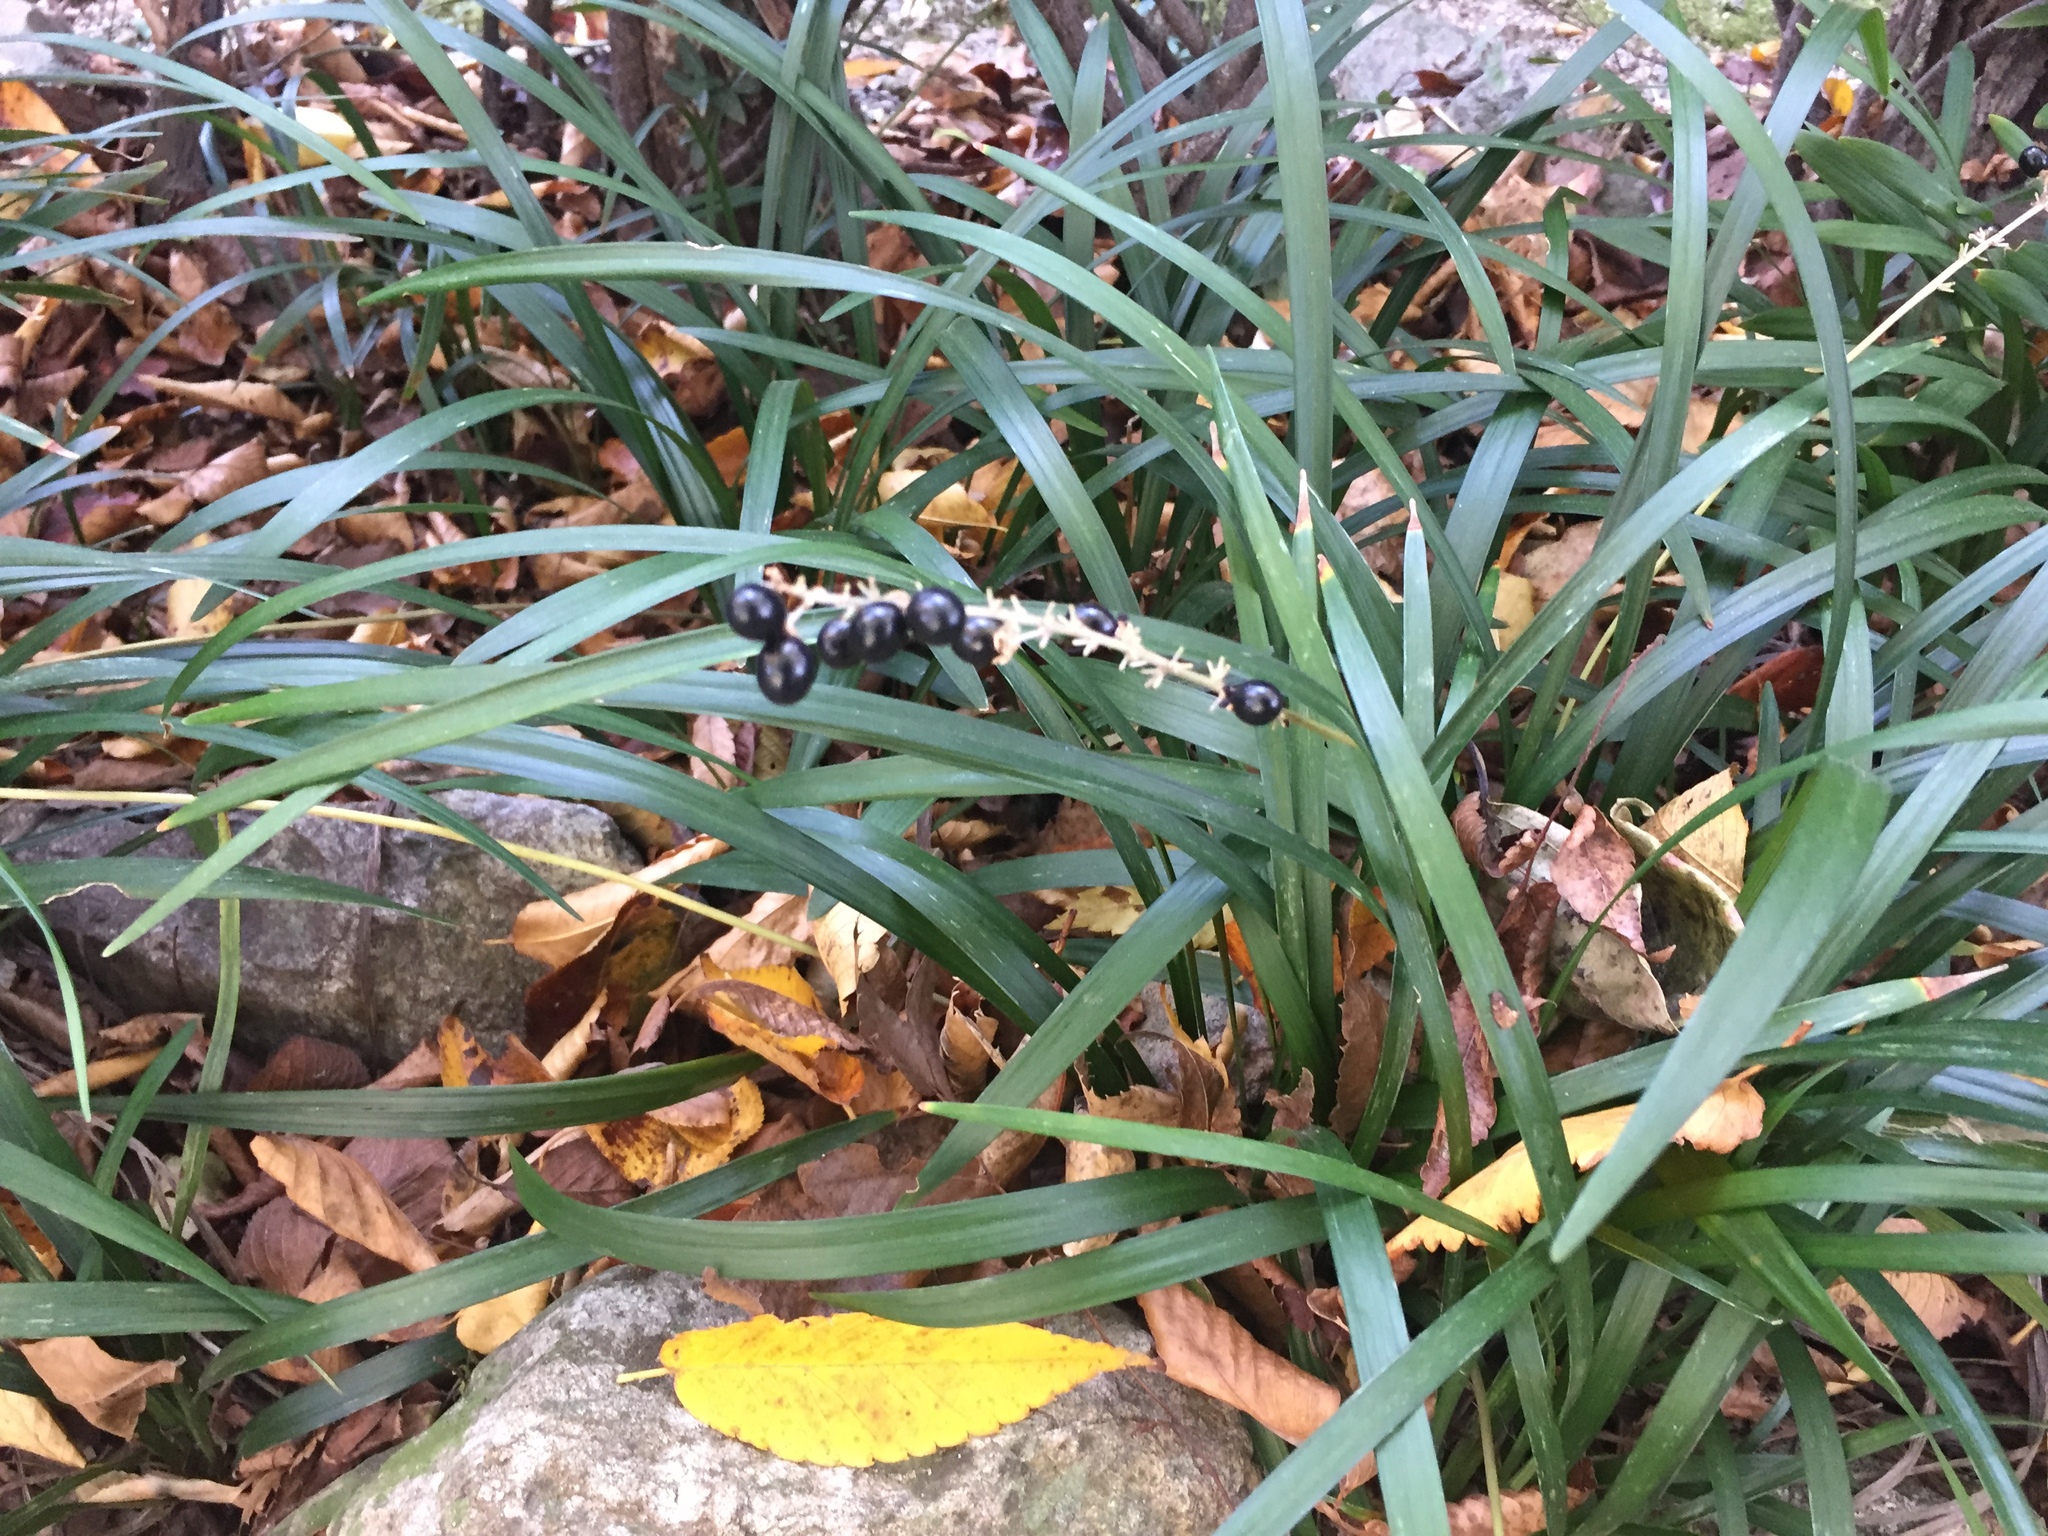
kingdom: Plantae
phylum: Tracheophyta
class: Liliopsida
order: Asparagales
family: Asparagaceae
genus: Liriope
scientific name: Liriope muscari
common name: Big blue lilyturf
